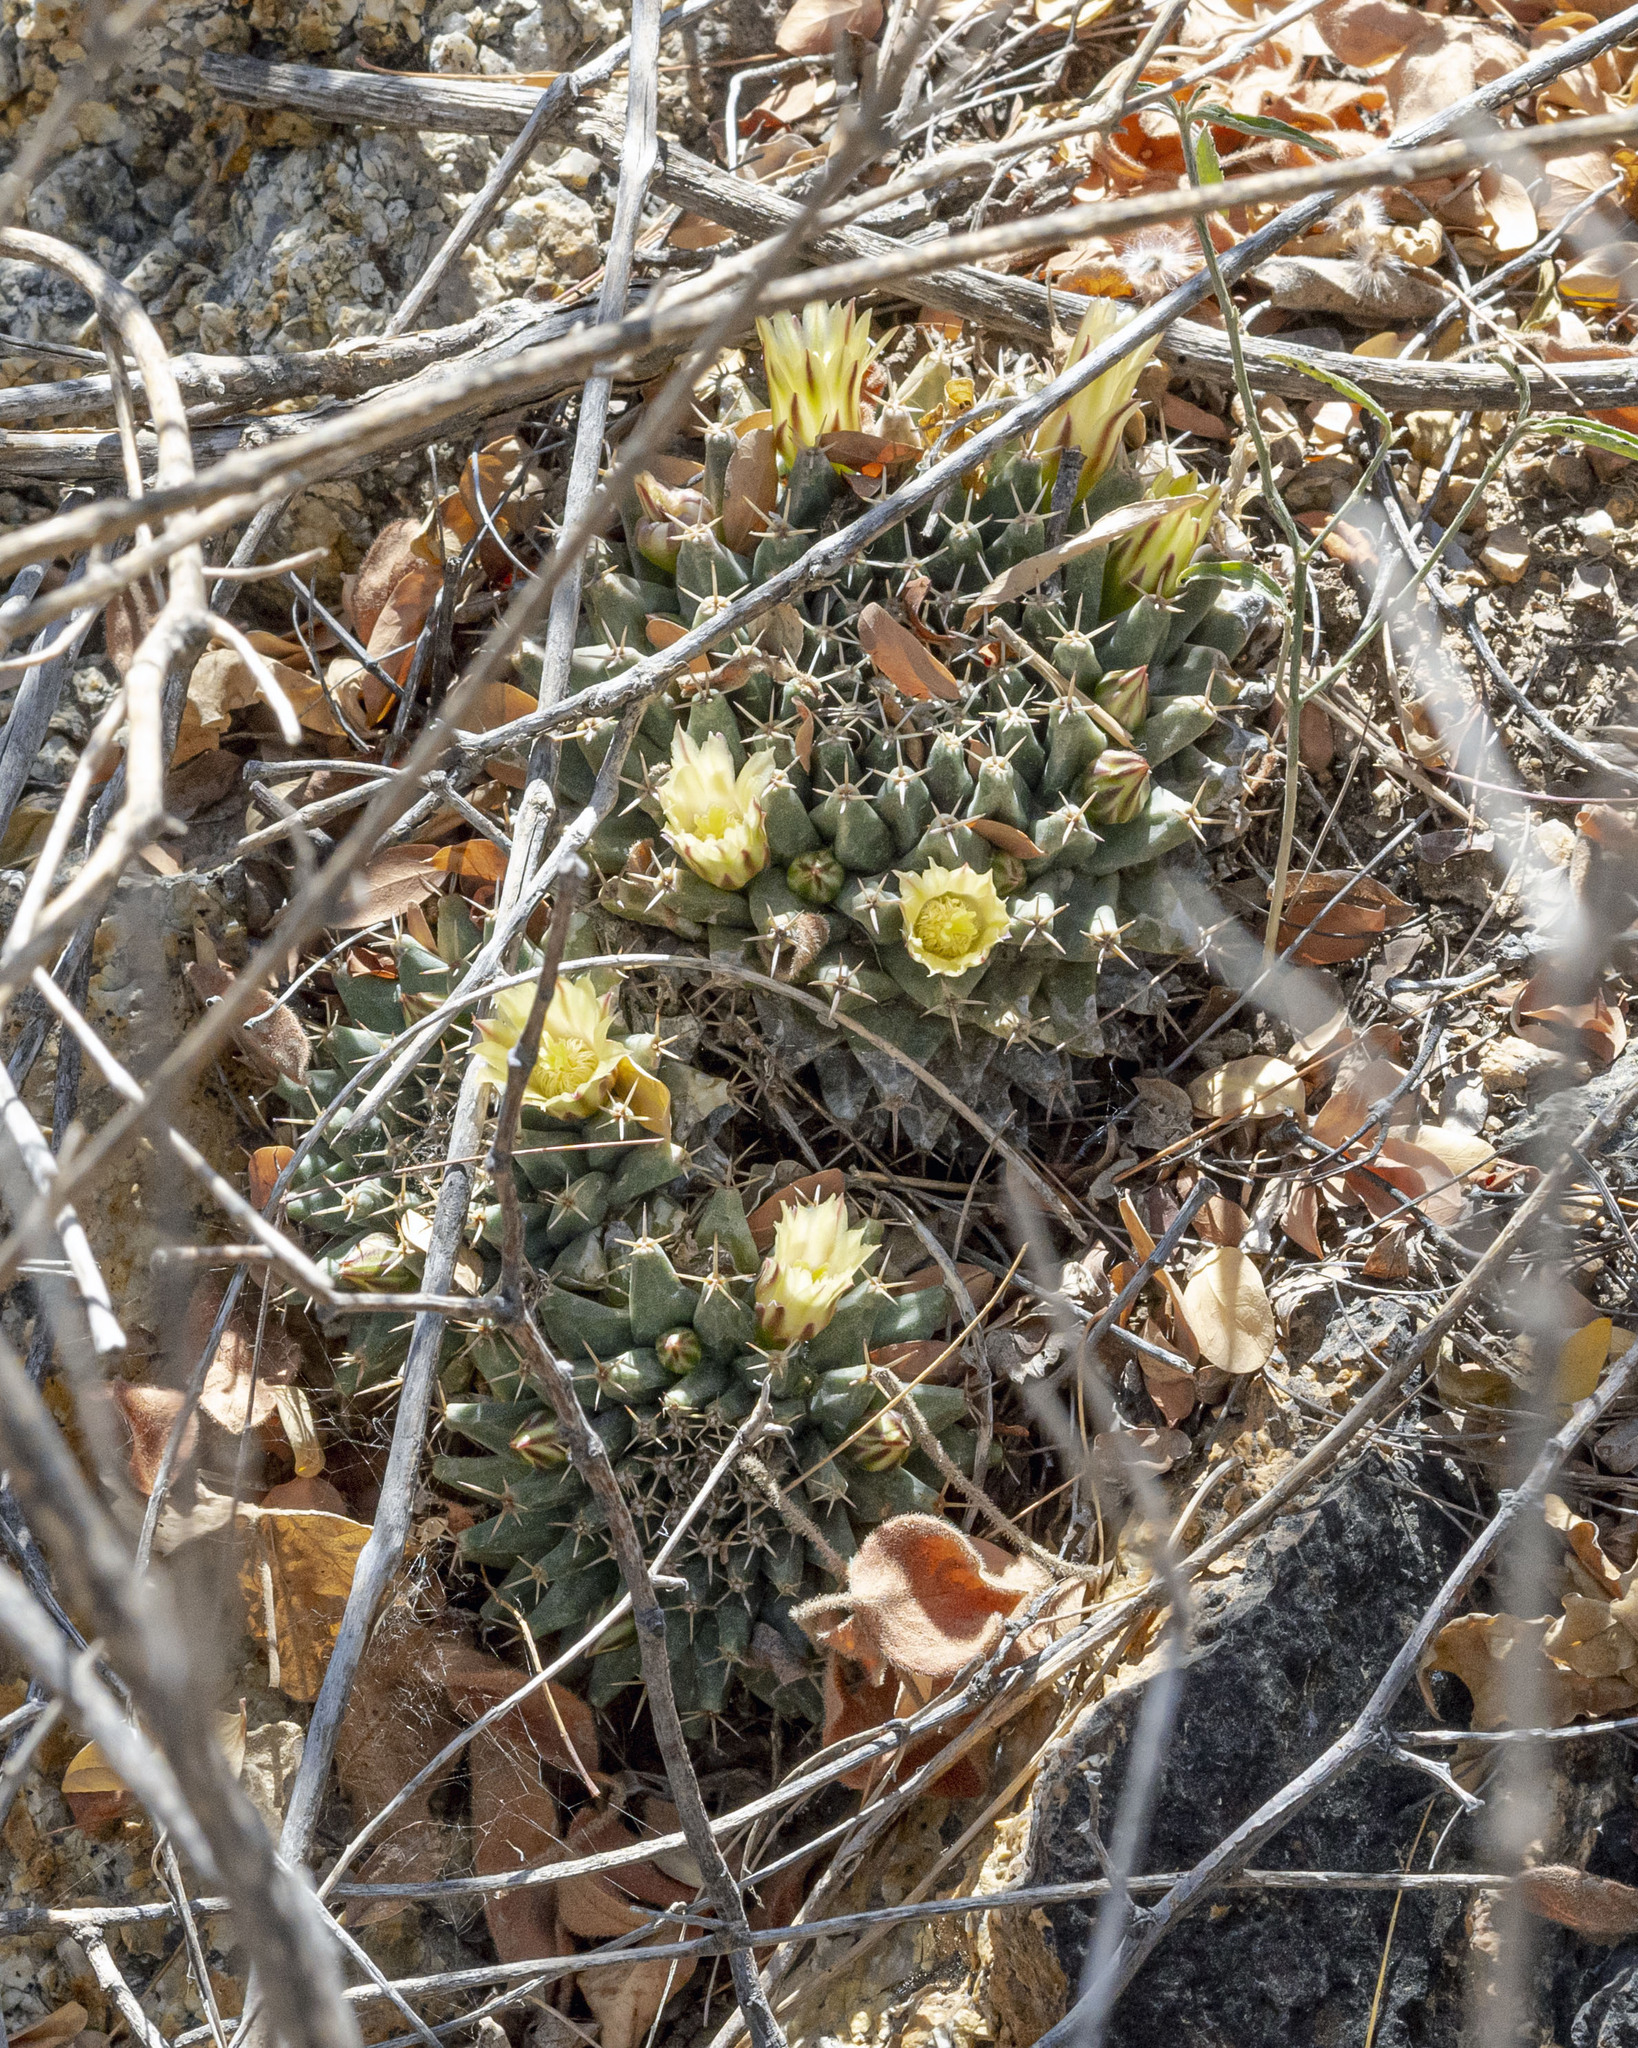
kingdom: Plantae
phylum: Tracheophyta
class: Magnoliopsida
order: Caryophyllales
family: Cactaceae
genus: Mammillaria
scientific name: Mammillaria peninsularis
